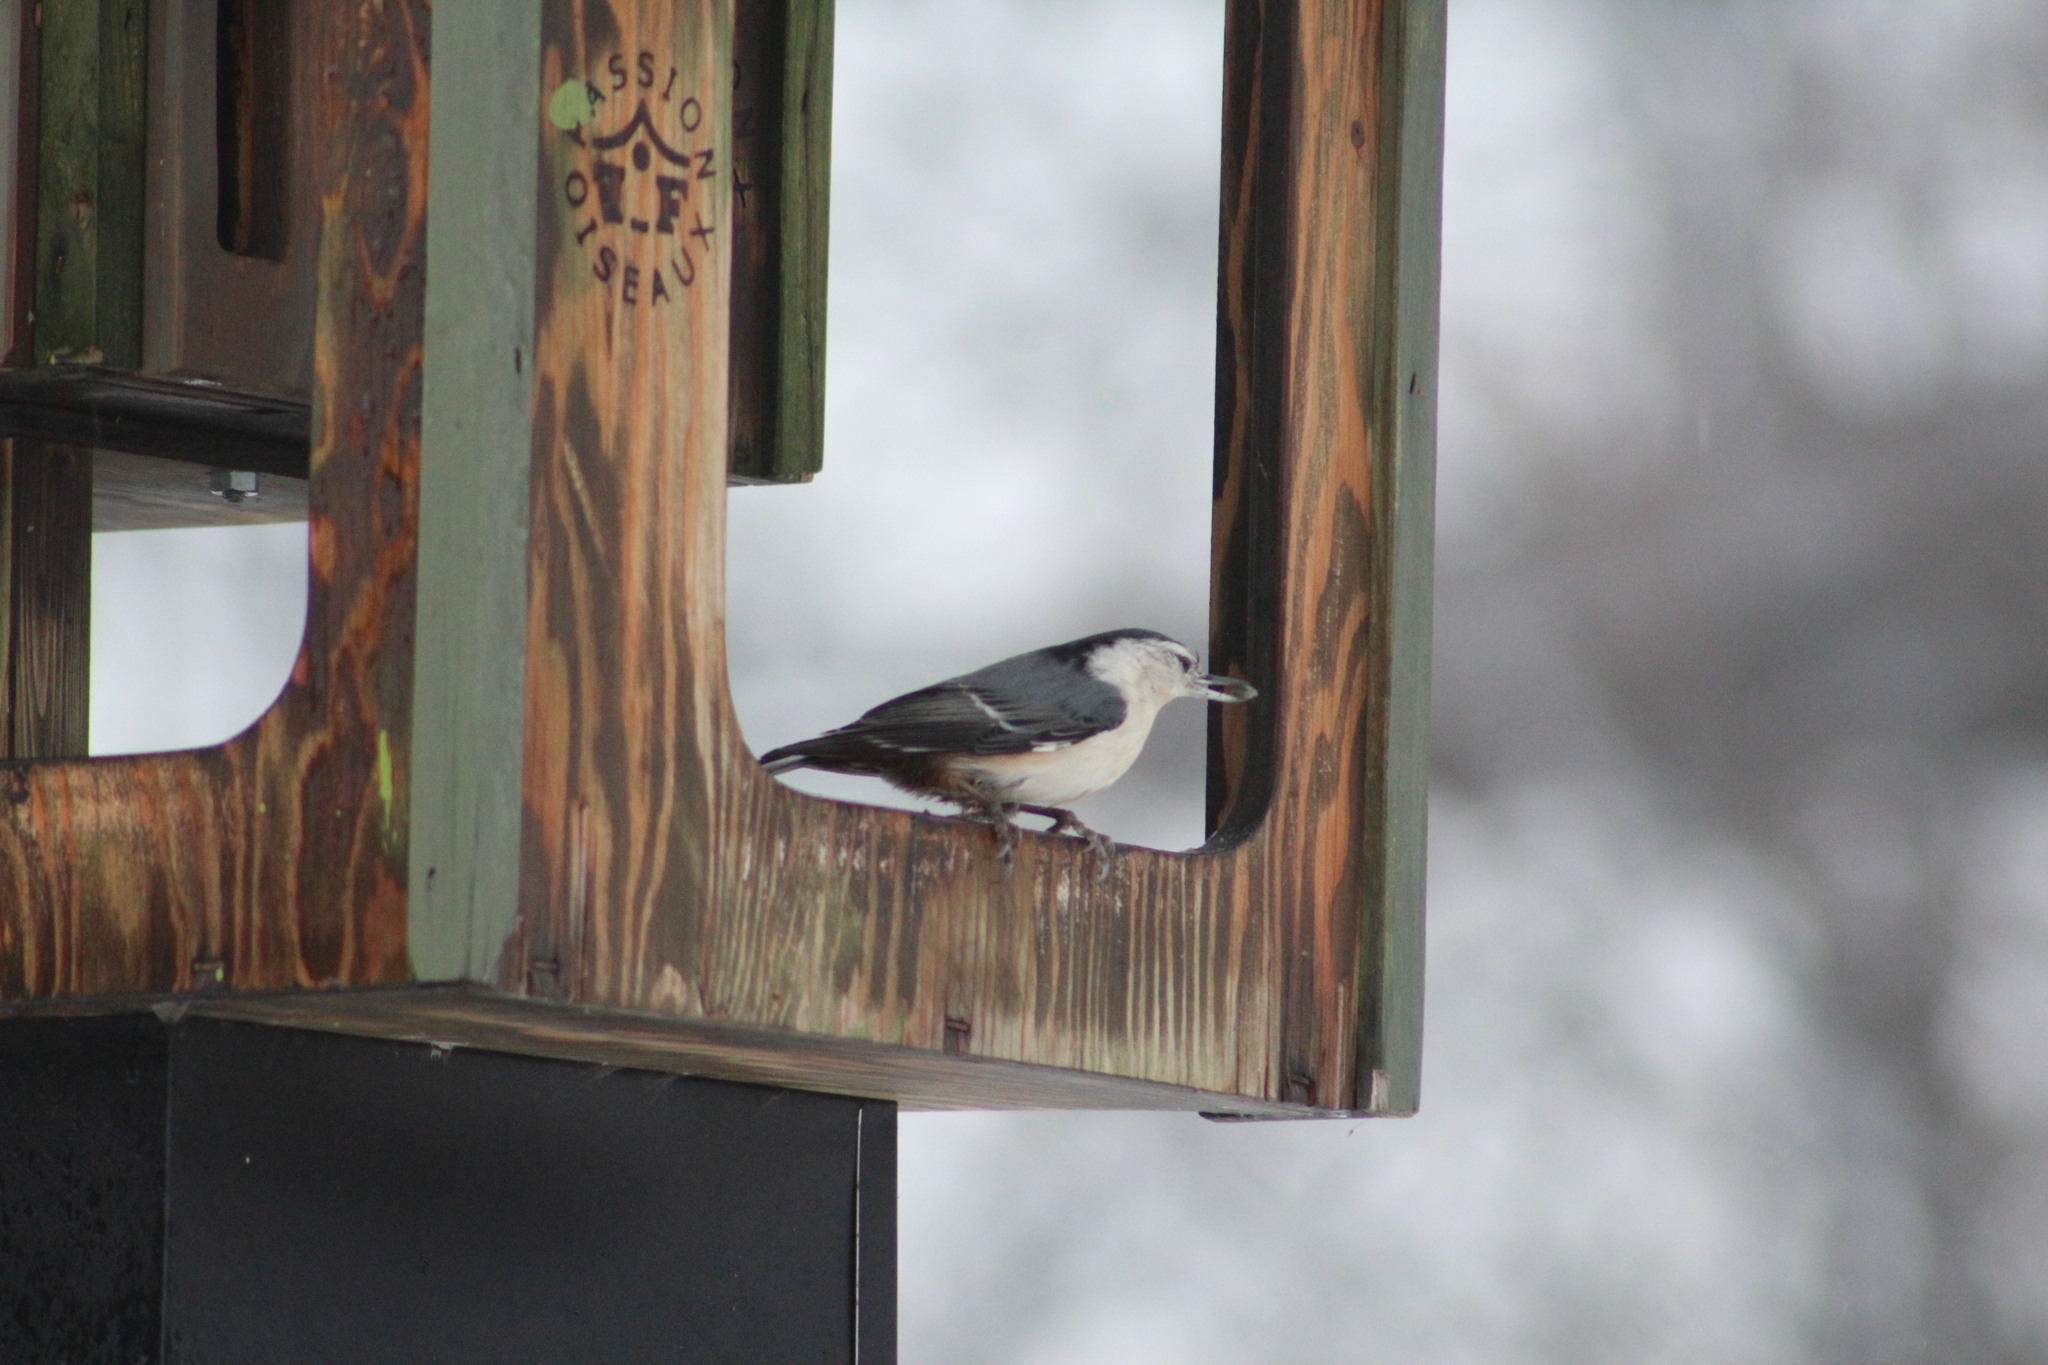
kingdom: Animalia
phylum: Chordata
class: Aves
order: Passeriformes
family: Sittidae
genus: Sitta
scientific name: Sitta carolinensis
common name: White-breasted nuthatch
